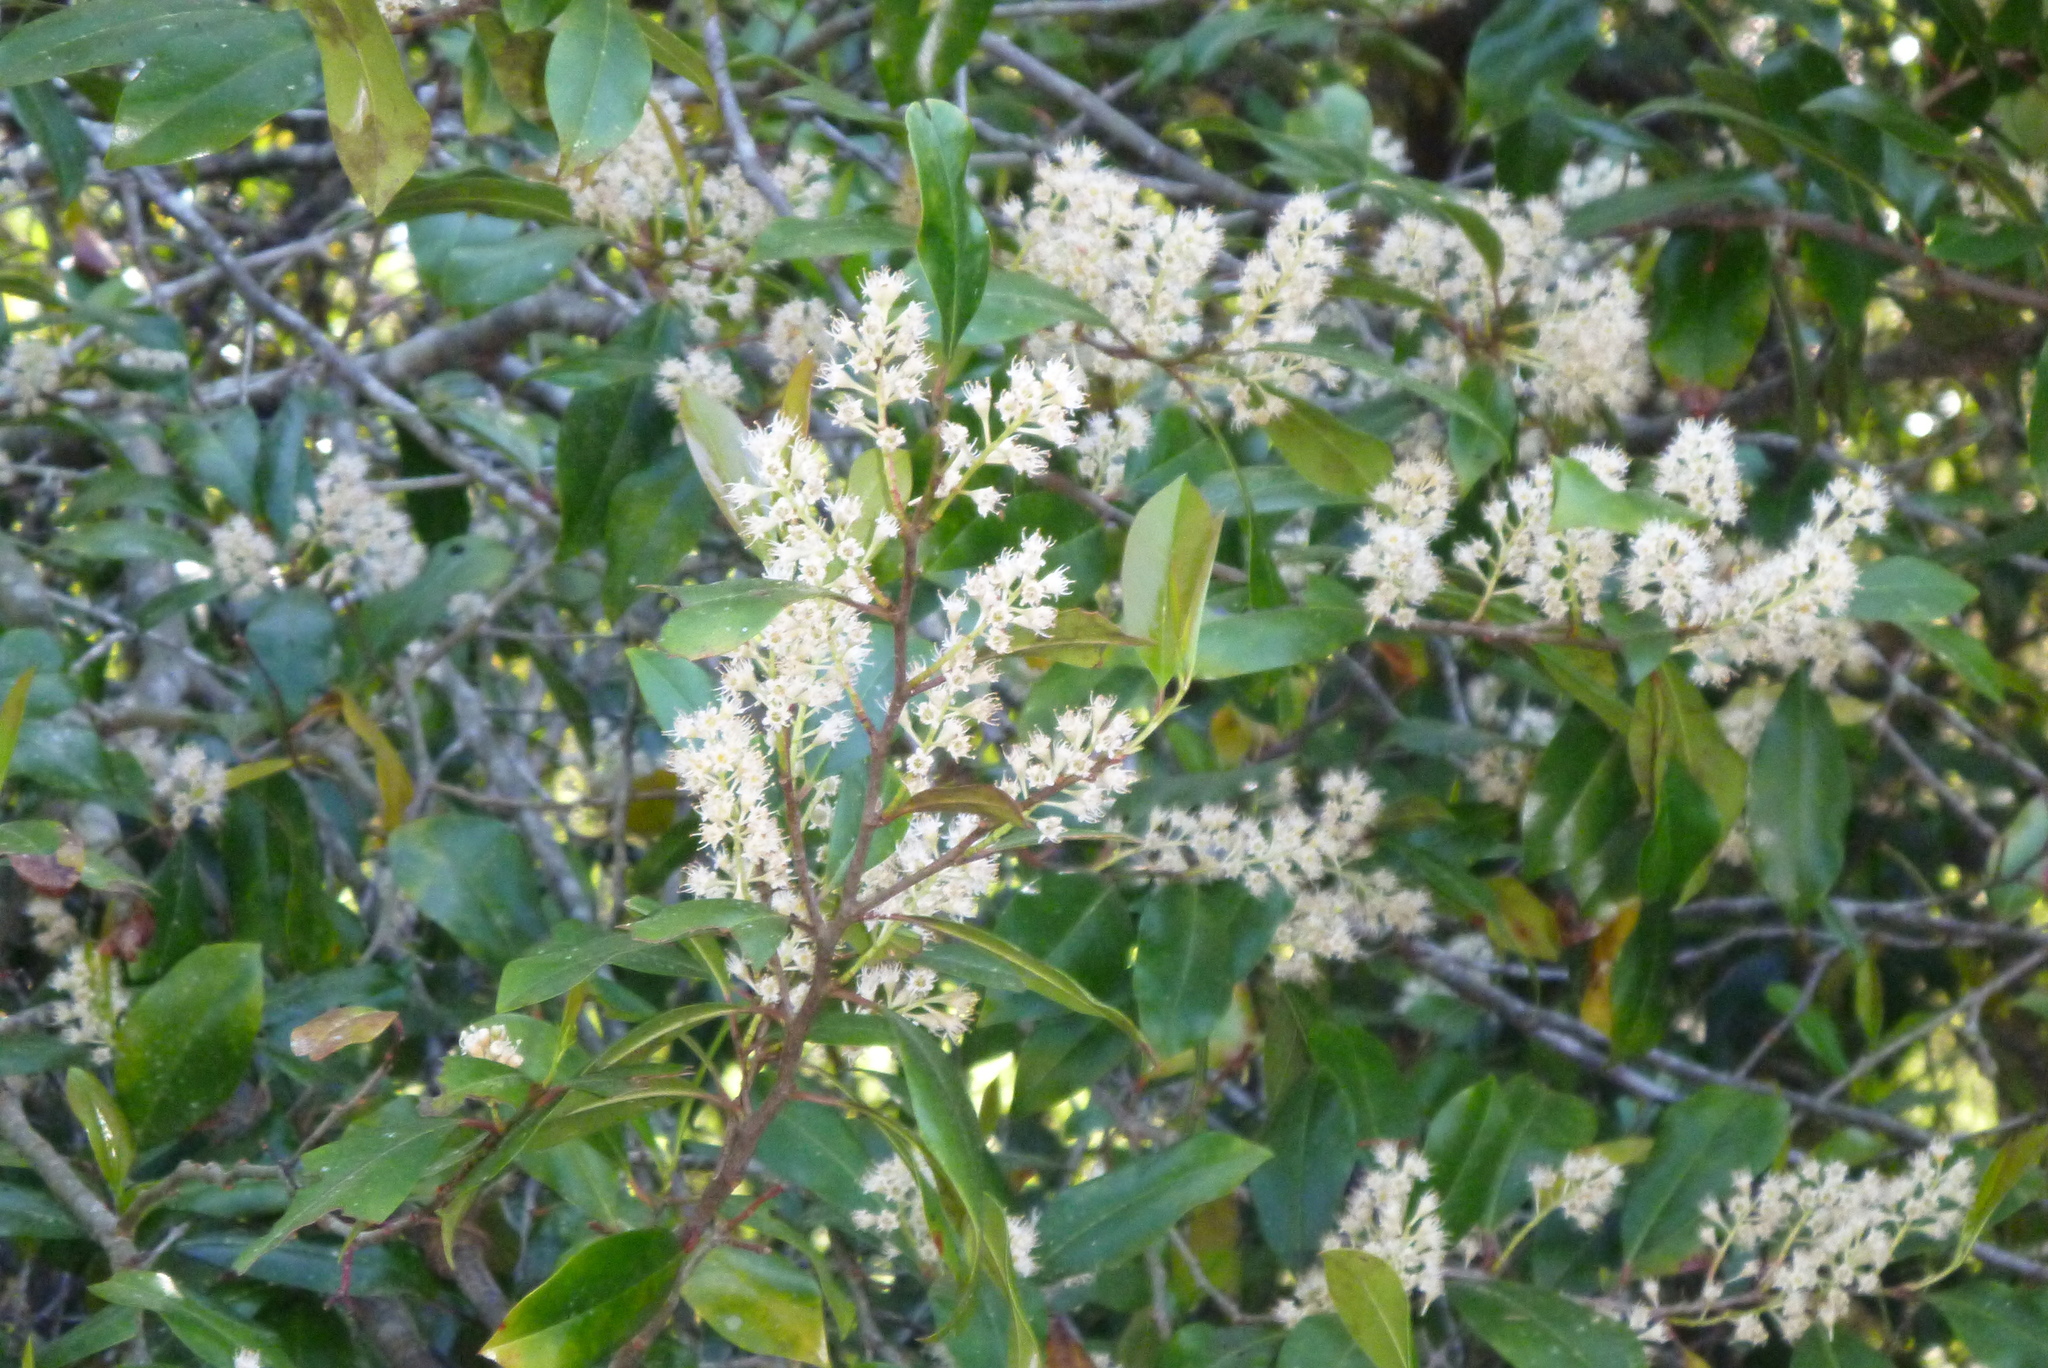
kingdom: Plantae
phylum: Tracheophyta
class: Magnoliopsida
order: Ericales
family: Cyrillaceae
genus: Cliftonia
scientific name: Cliftonia monophylla
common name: Titi
